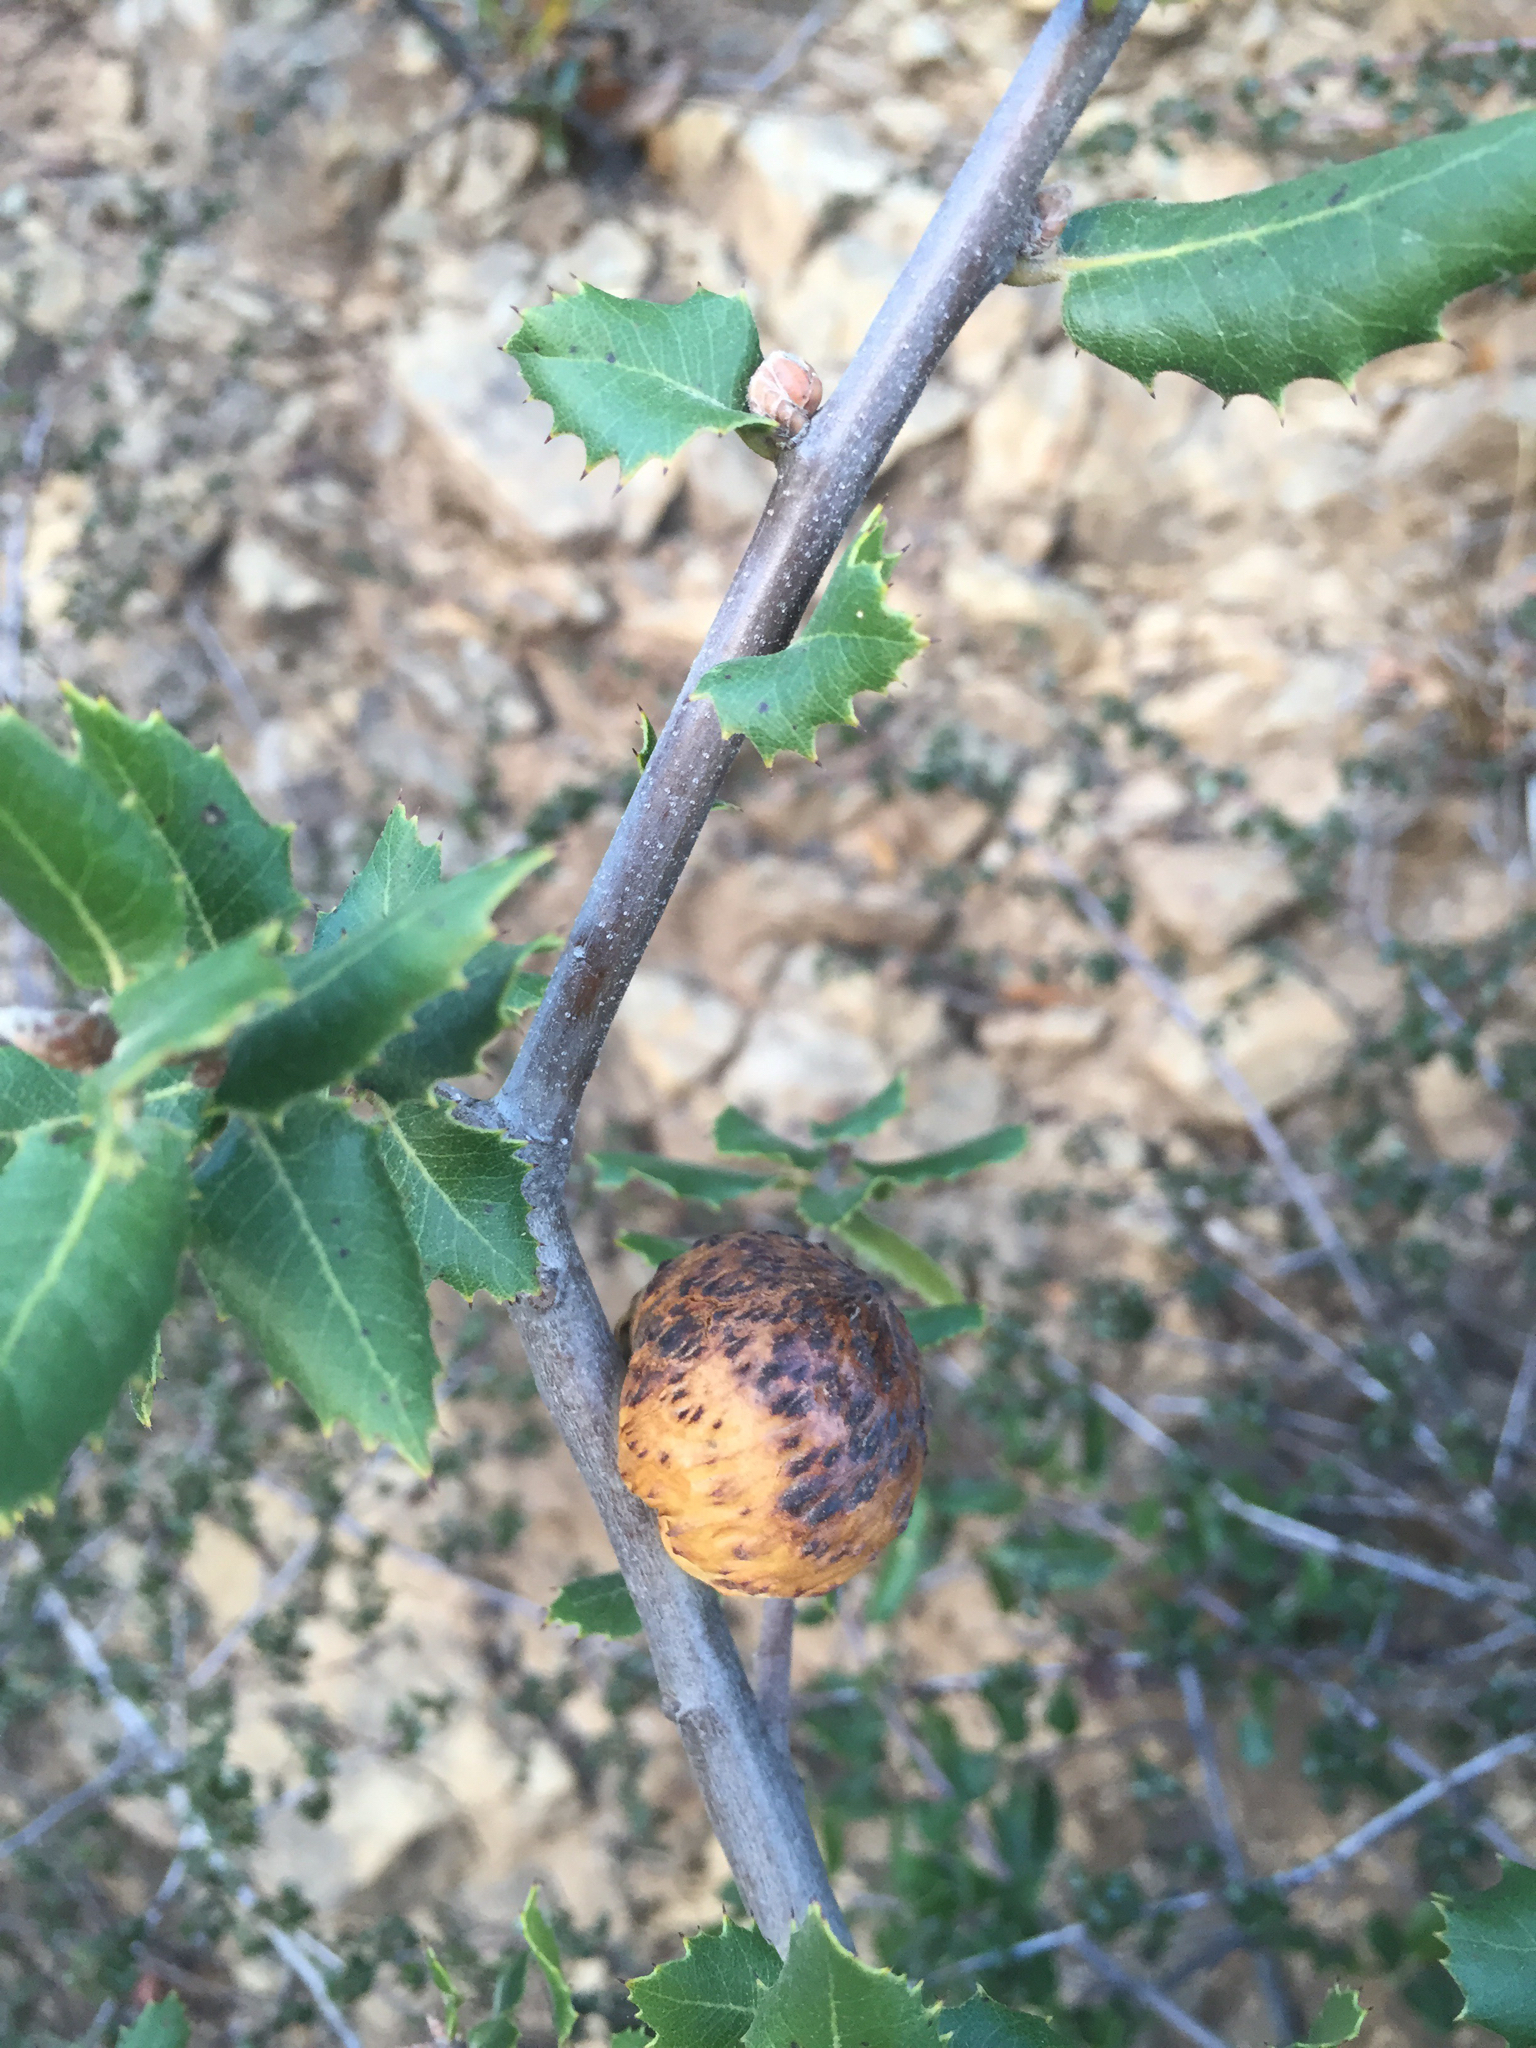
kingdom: Animalia
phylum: Arthropoda
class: Insecta
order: Hymenoptera
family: Cynipidae
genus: Amphibolips
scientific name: Amphibolips quercuspomiformis
